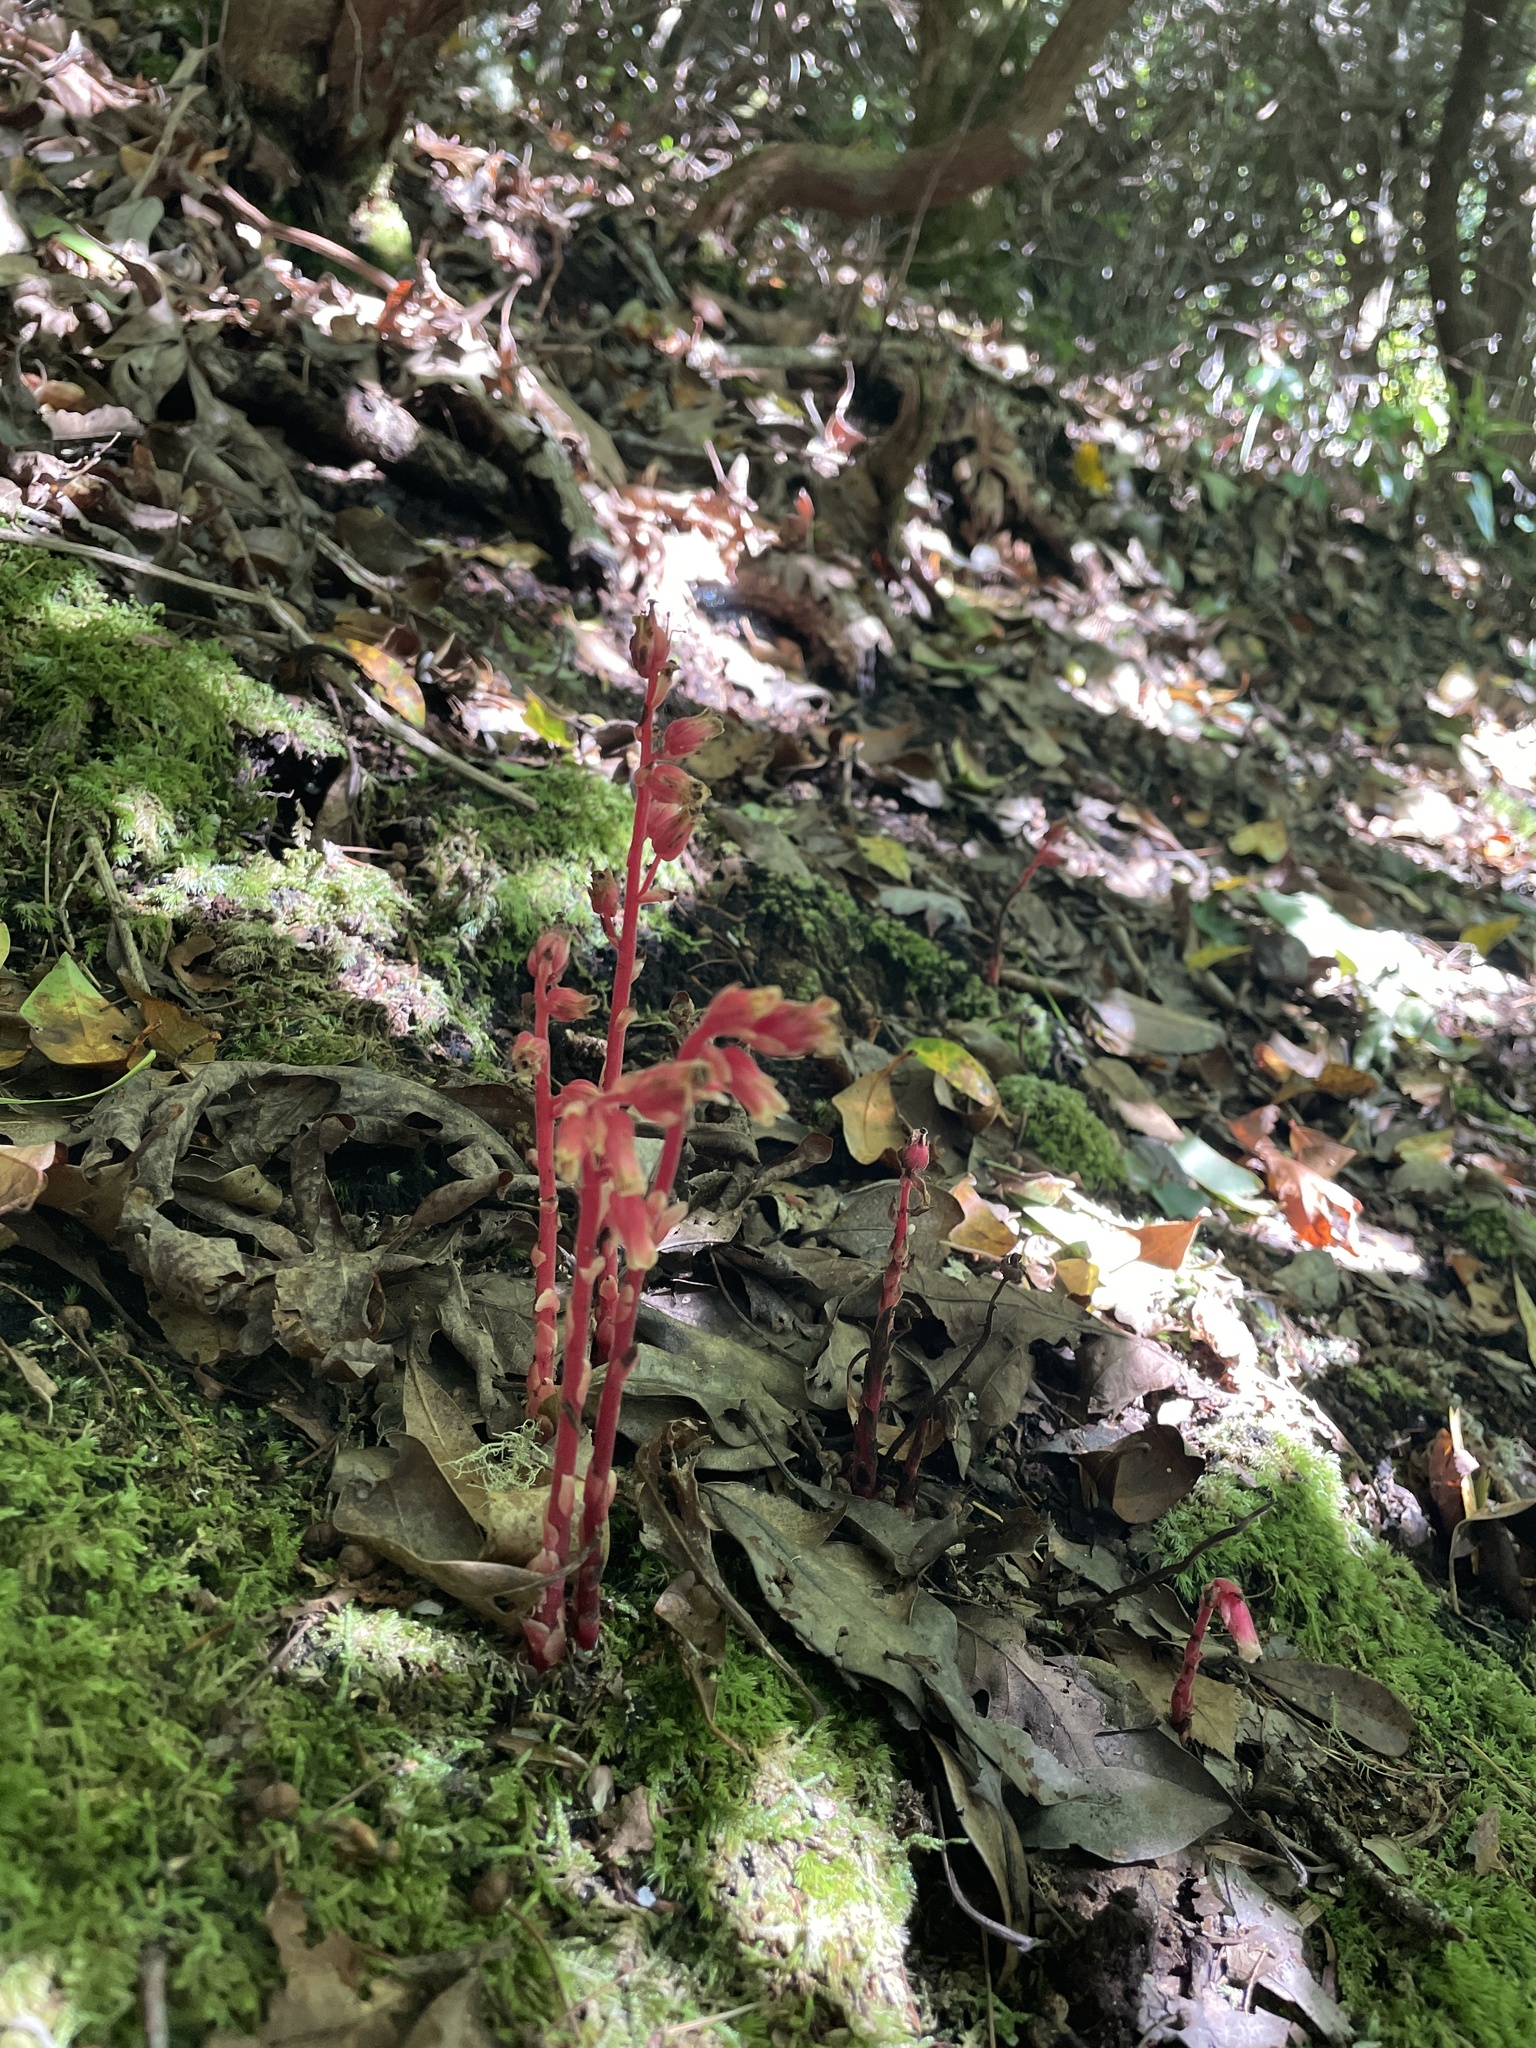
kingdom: Plantae
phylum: Tracheophyta
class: Magnoliopsida
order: Ericales
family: Ericaceae
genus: Hypopitys
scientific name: Hypopitys monotropa
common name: Yellow bird's-nest
